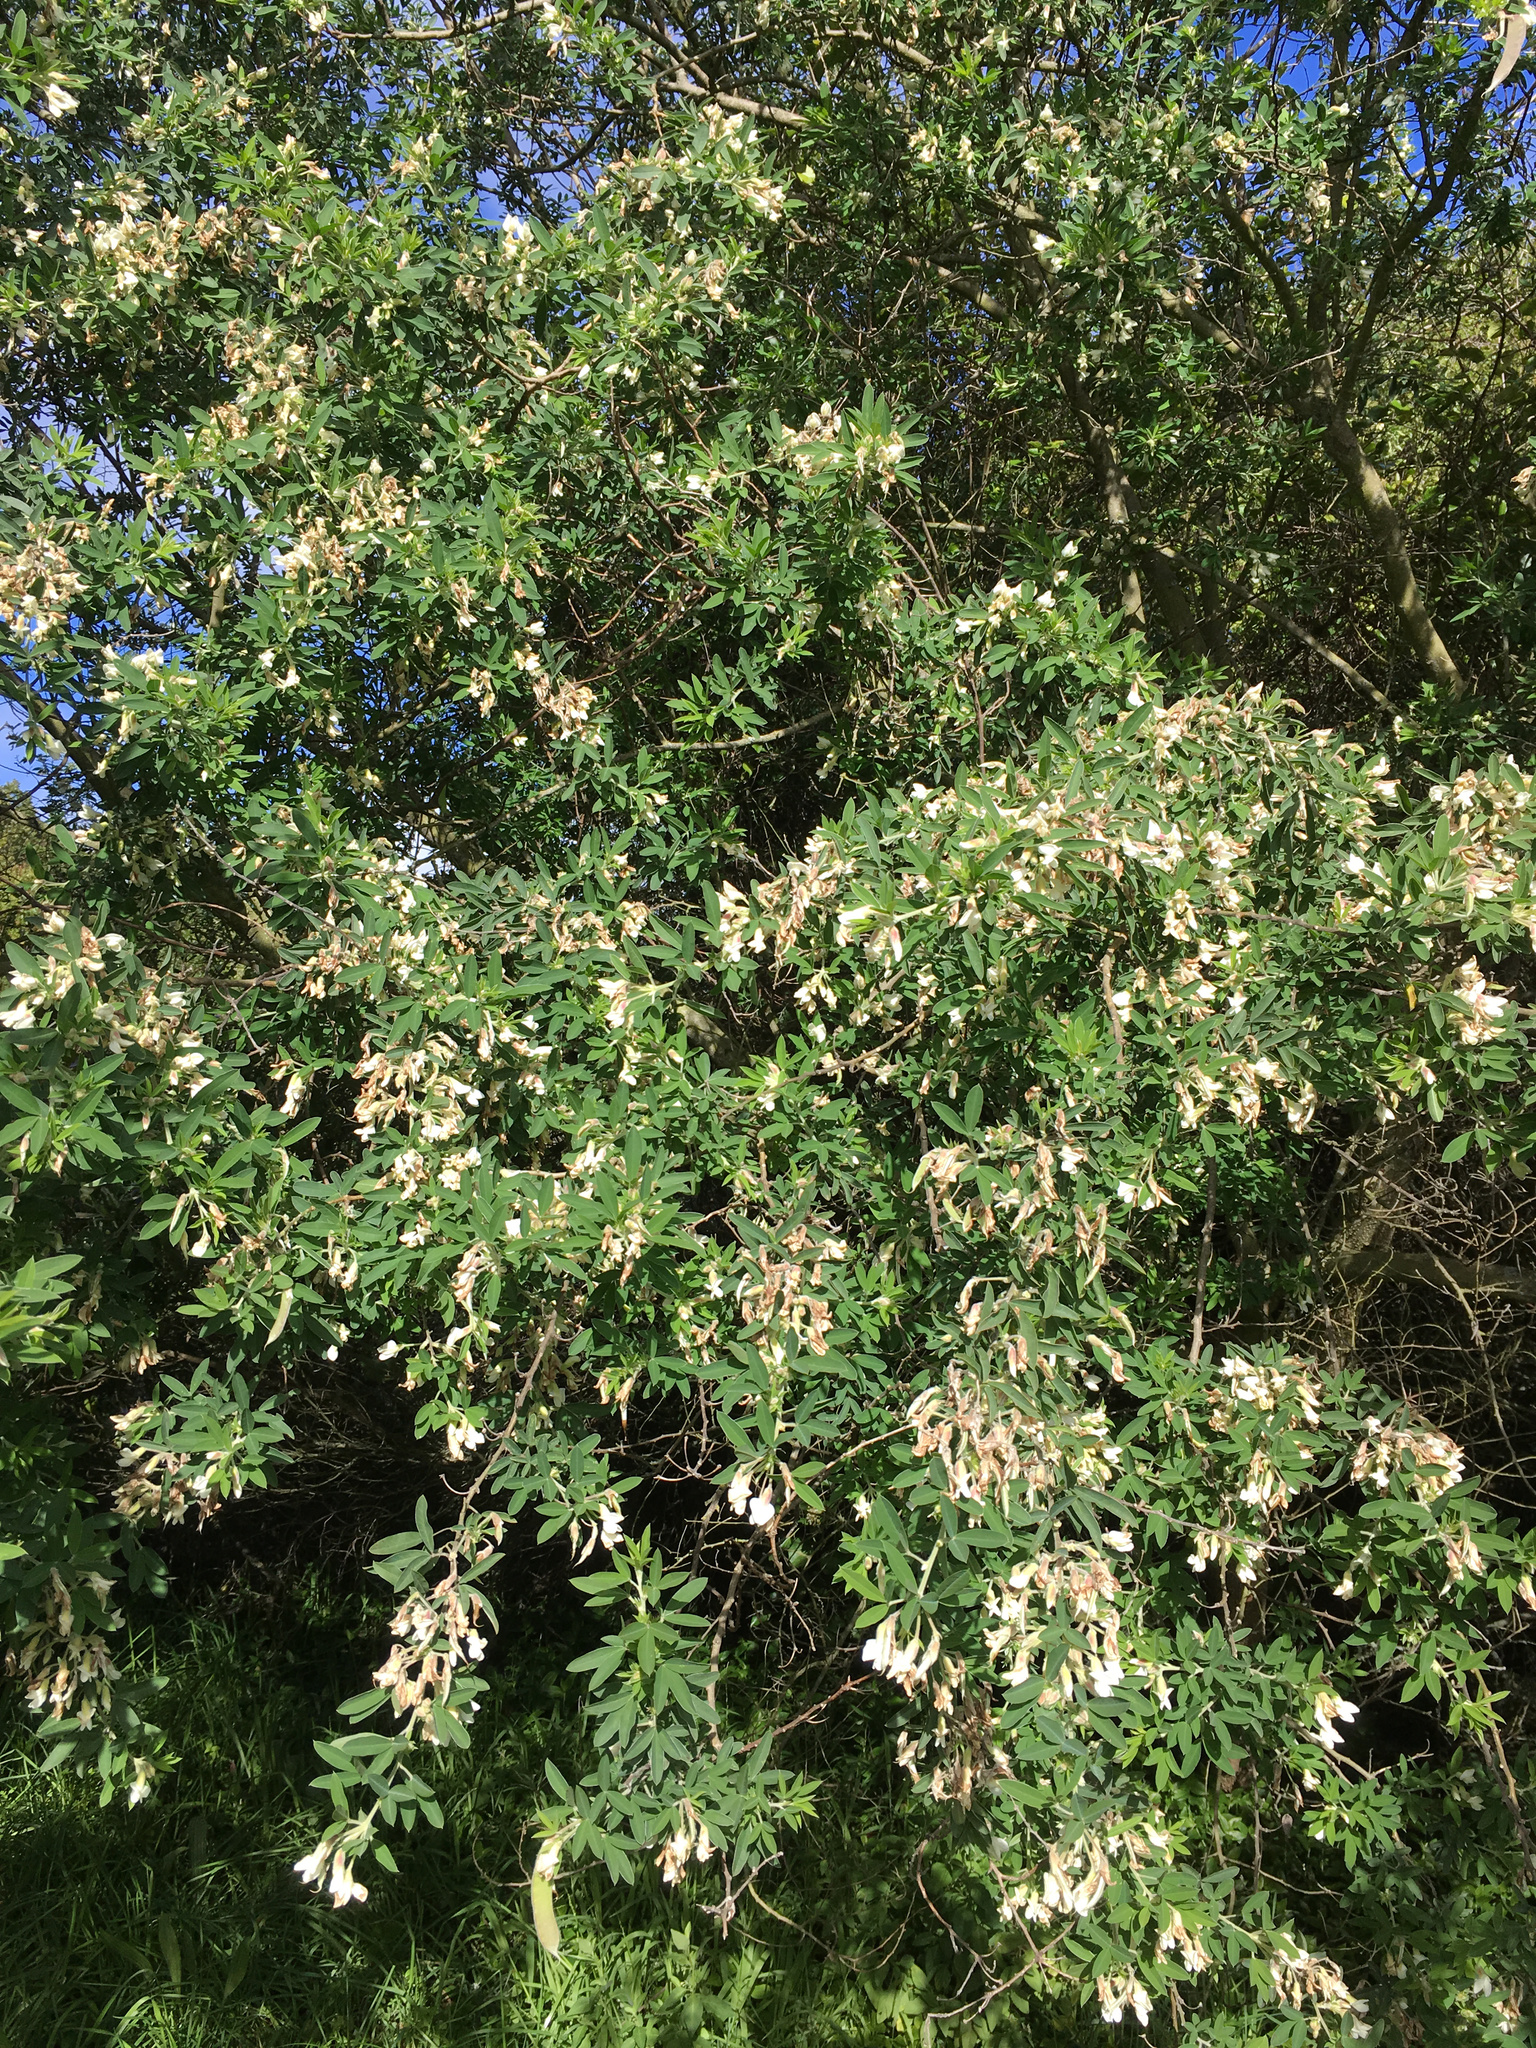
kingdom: Plantae
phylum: Tracheophyta
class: Magnoliopsida
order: Fabales
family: Fabaceae
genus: Chamaecytisus
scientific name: Chamaecytisus prolifer
